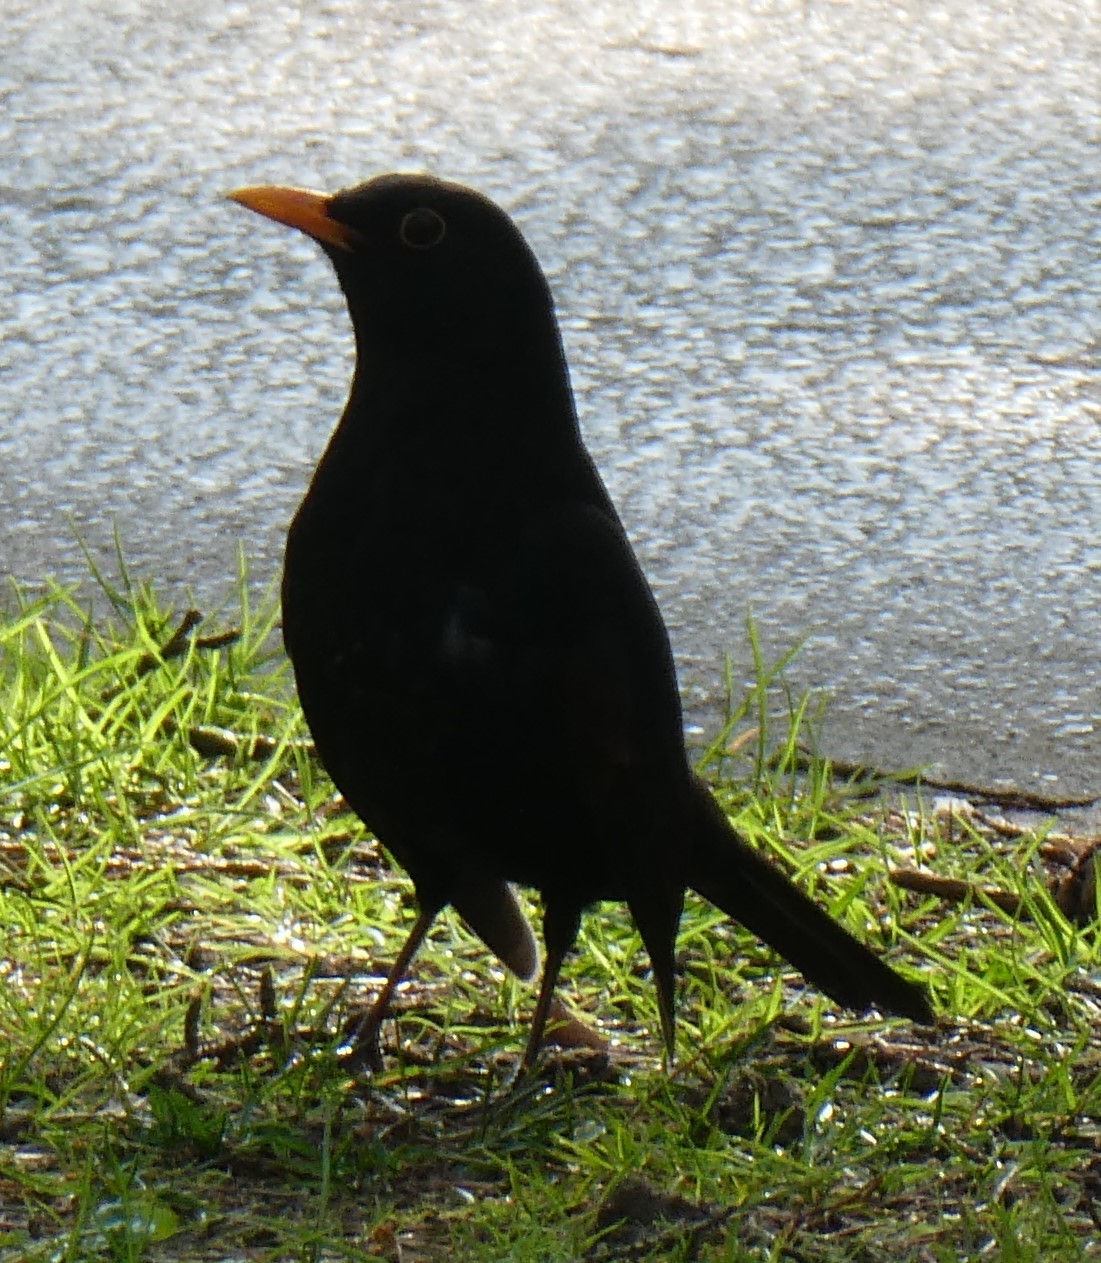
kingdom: Animalia
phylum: Chordata
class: Aves
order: Passeriformes
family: Turdidae
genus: Turdus
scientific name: Turdus merula
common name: Common blackbird
